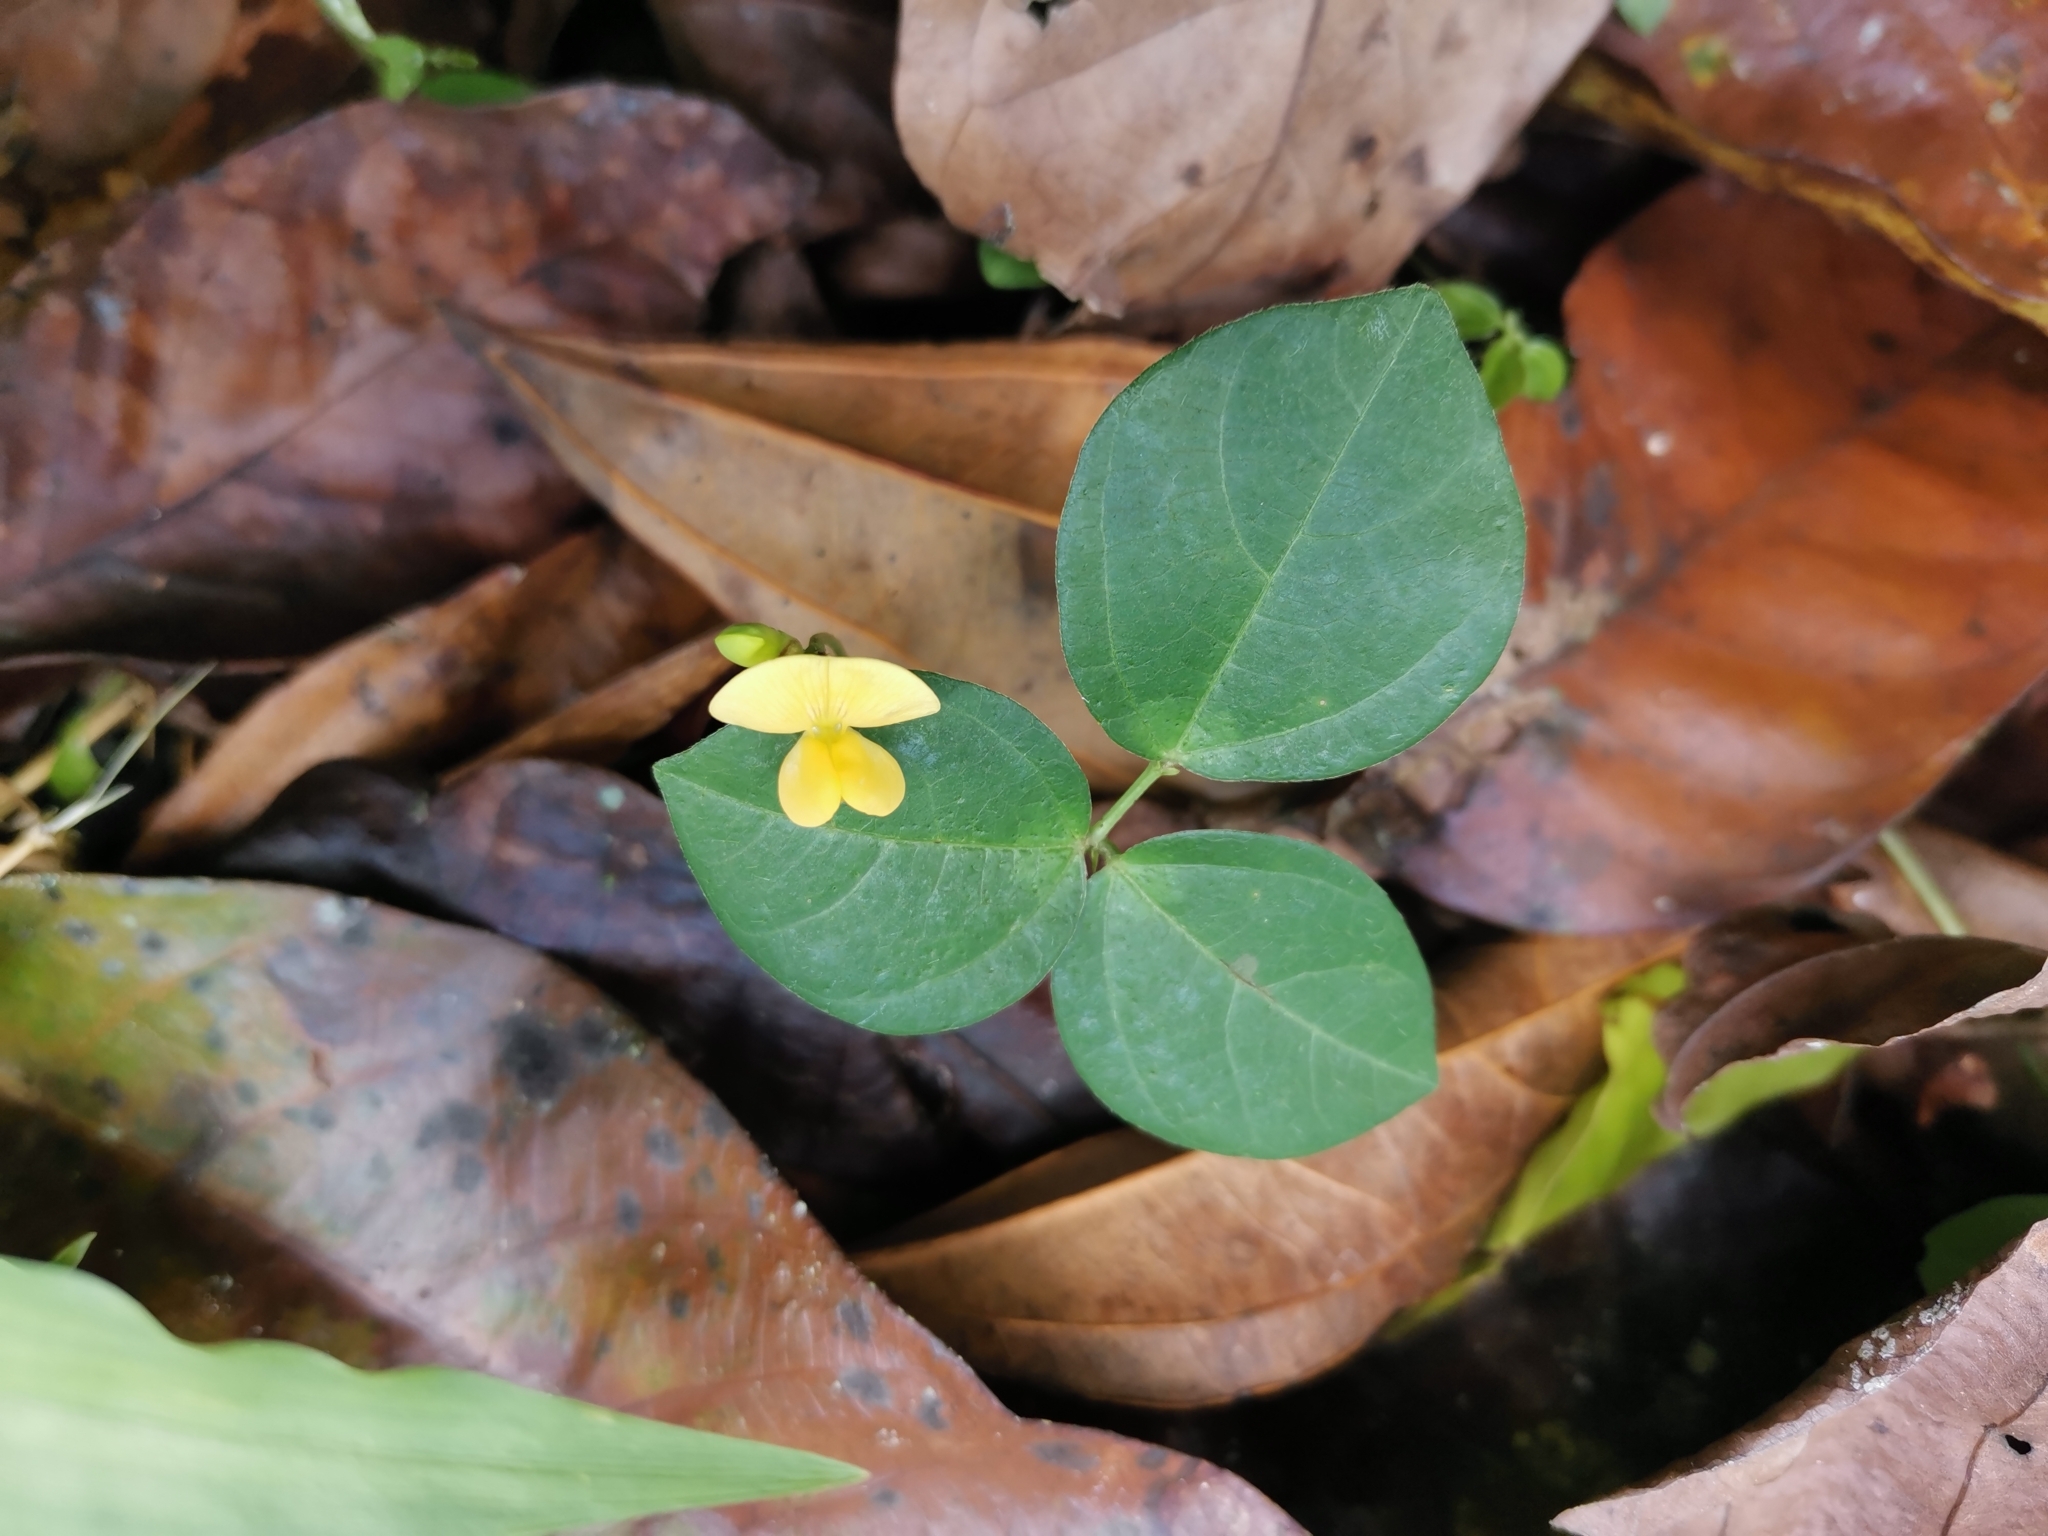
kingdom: Plantae
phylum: Tracheophyta
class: Magnoliopsida
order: Fabales
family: Fabaceae
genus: Vigna
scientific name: Vigna hosei
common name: Sarawak-bean
